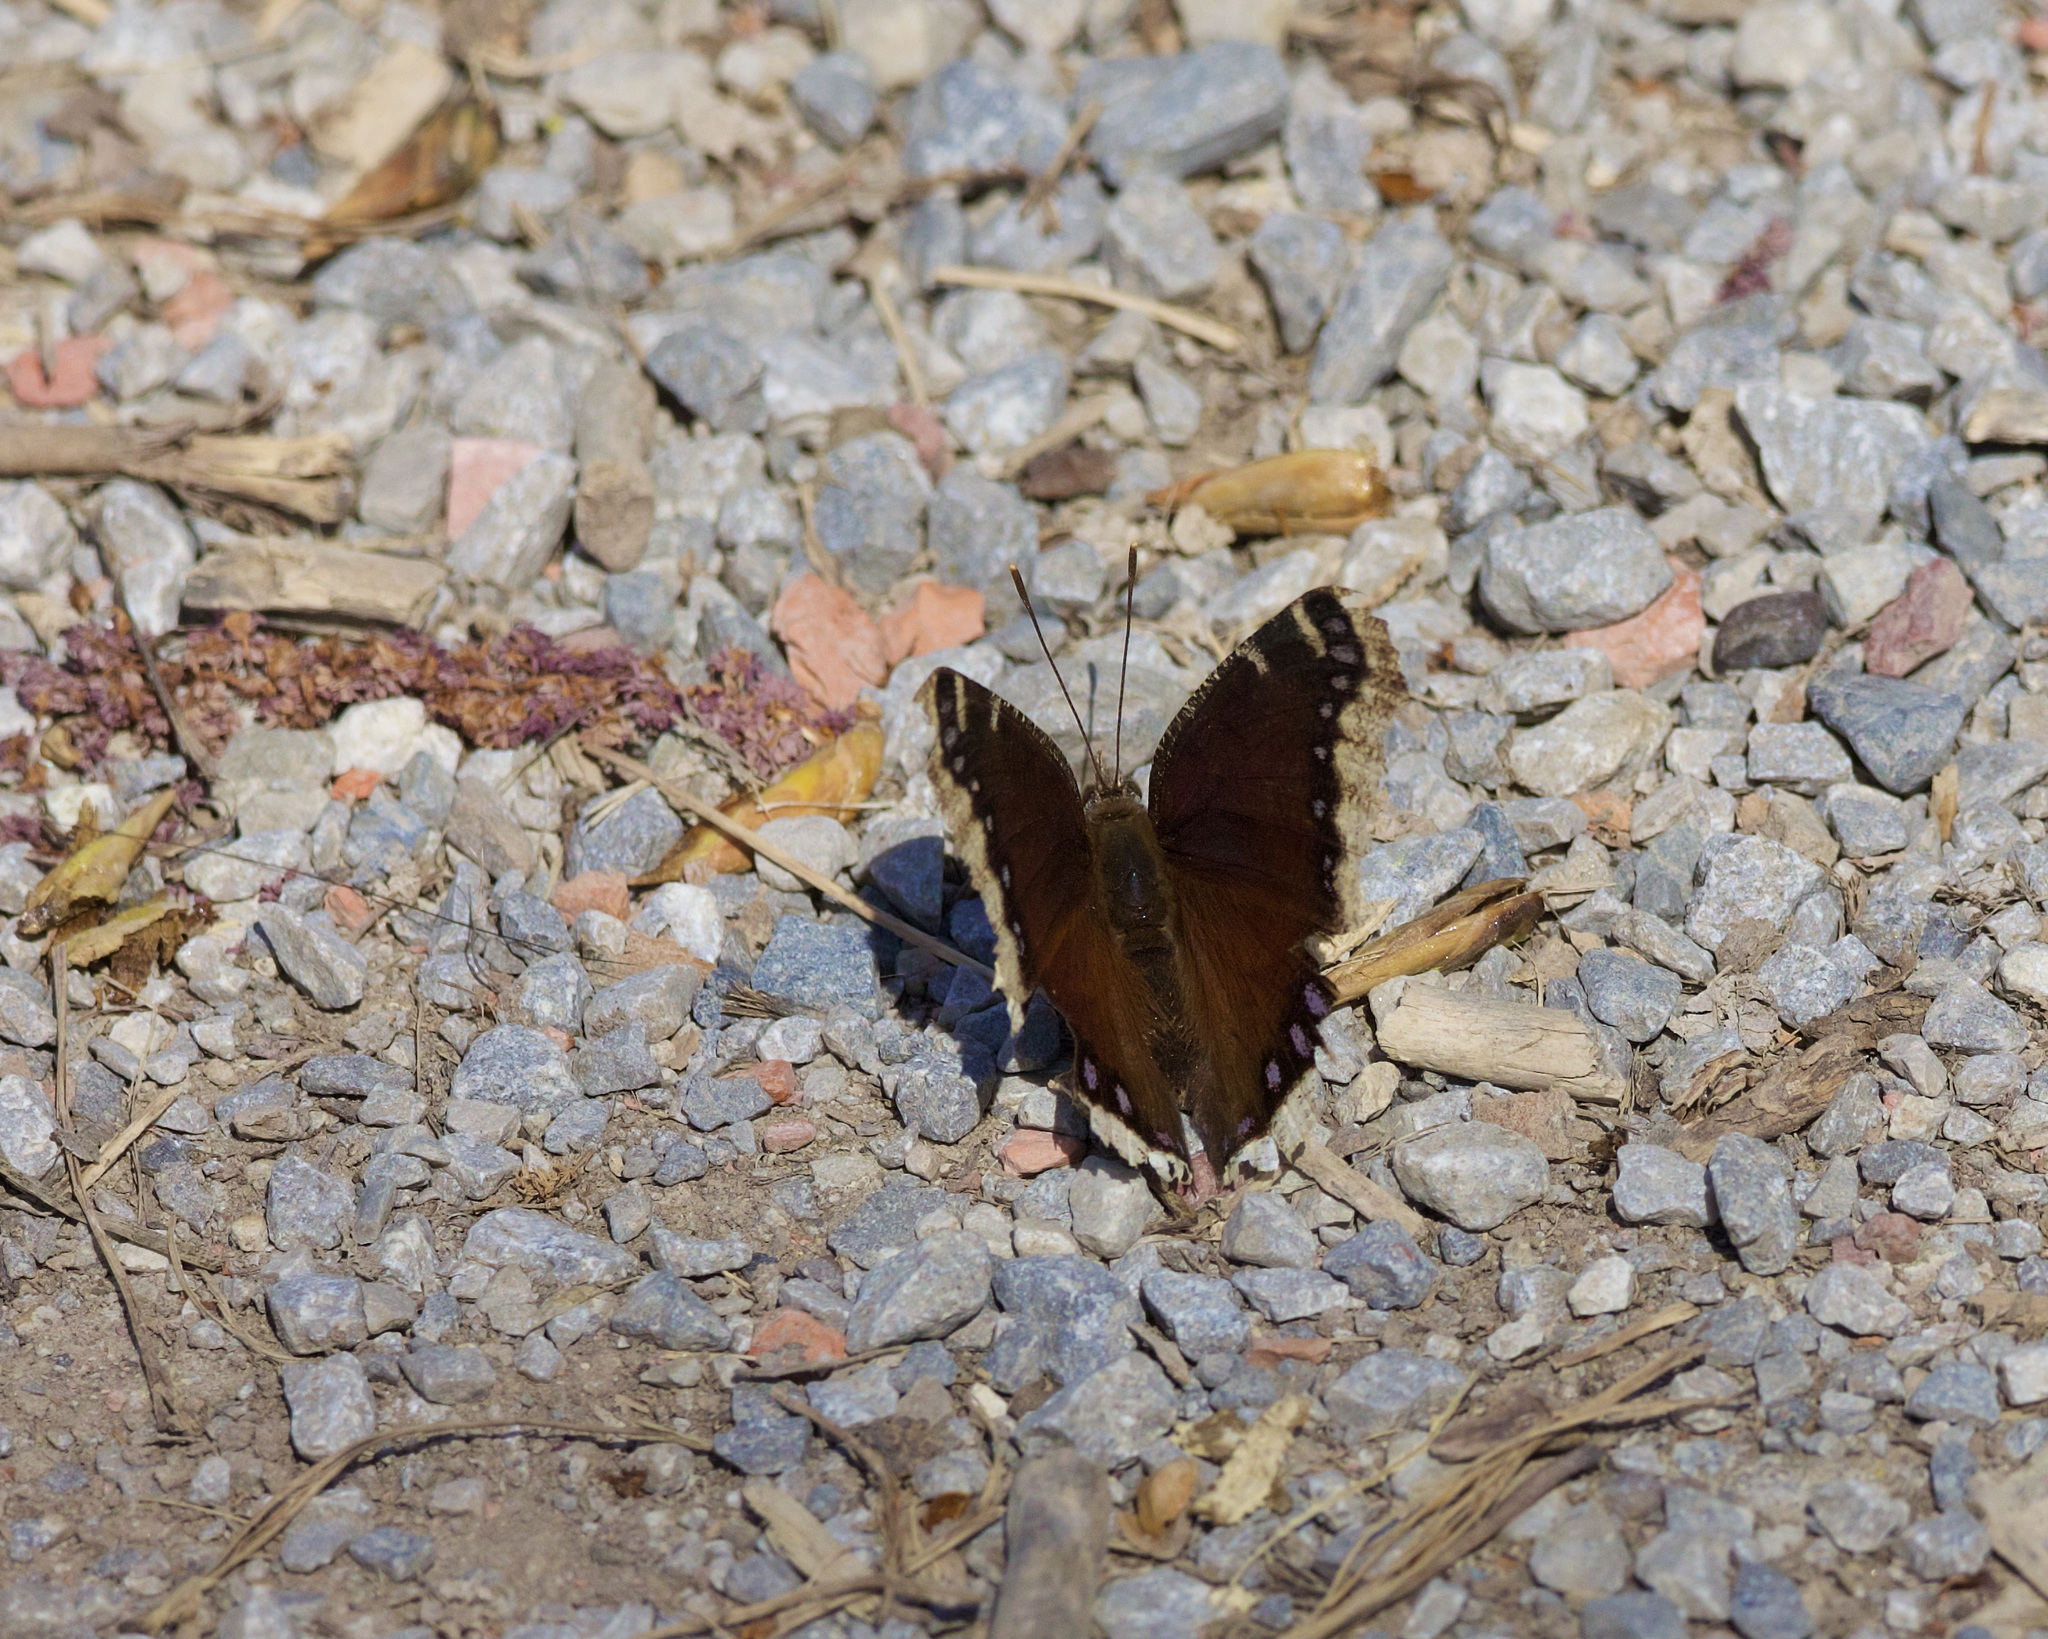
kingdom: Animalia
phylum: Arthropoda
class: Insecta
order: Lepidoptera
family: Nymphalidae
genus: Nymphalis
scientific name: Nymphalis antiopa
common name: Camberwell beauty
